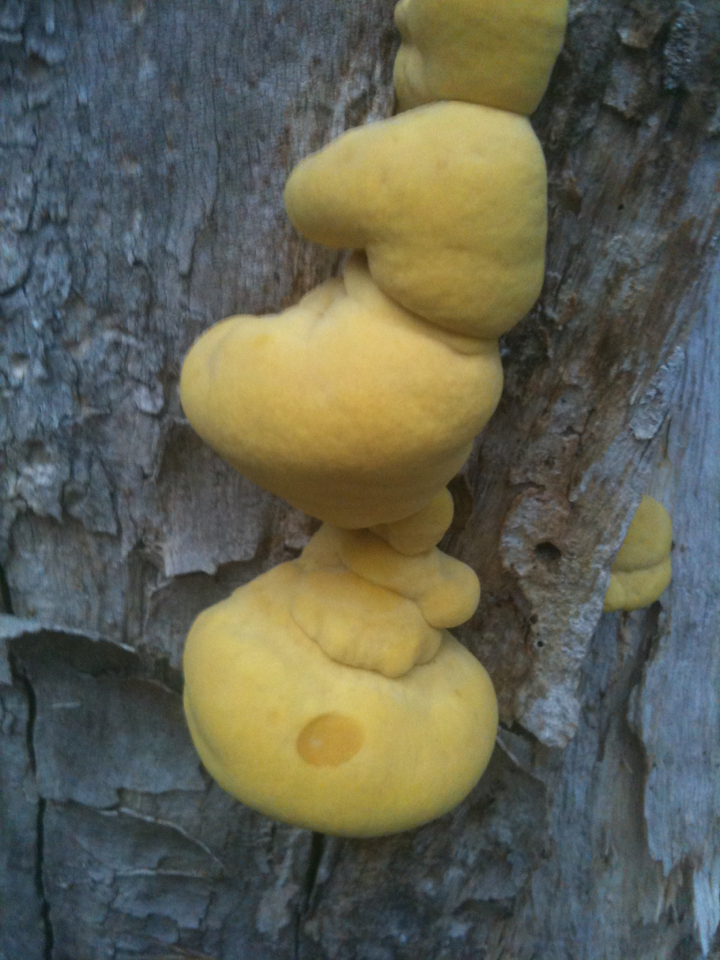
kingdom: Fungi
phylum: Basidiomycota
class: Agaricomycetes
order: Polyporales
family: Laetiporaceae
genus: Laetiporus
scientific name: Laetiporus gilbertsonii
